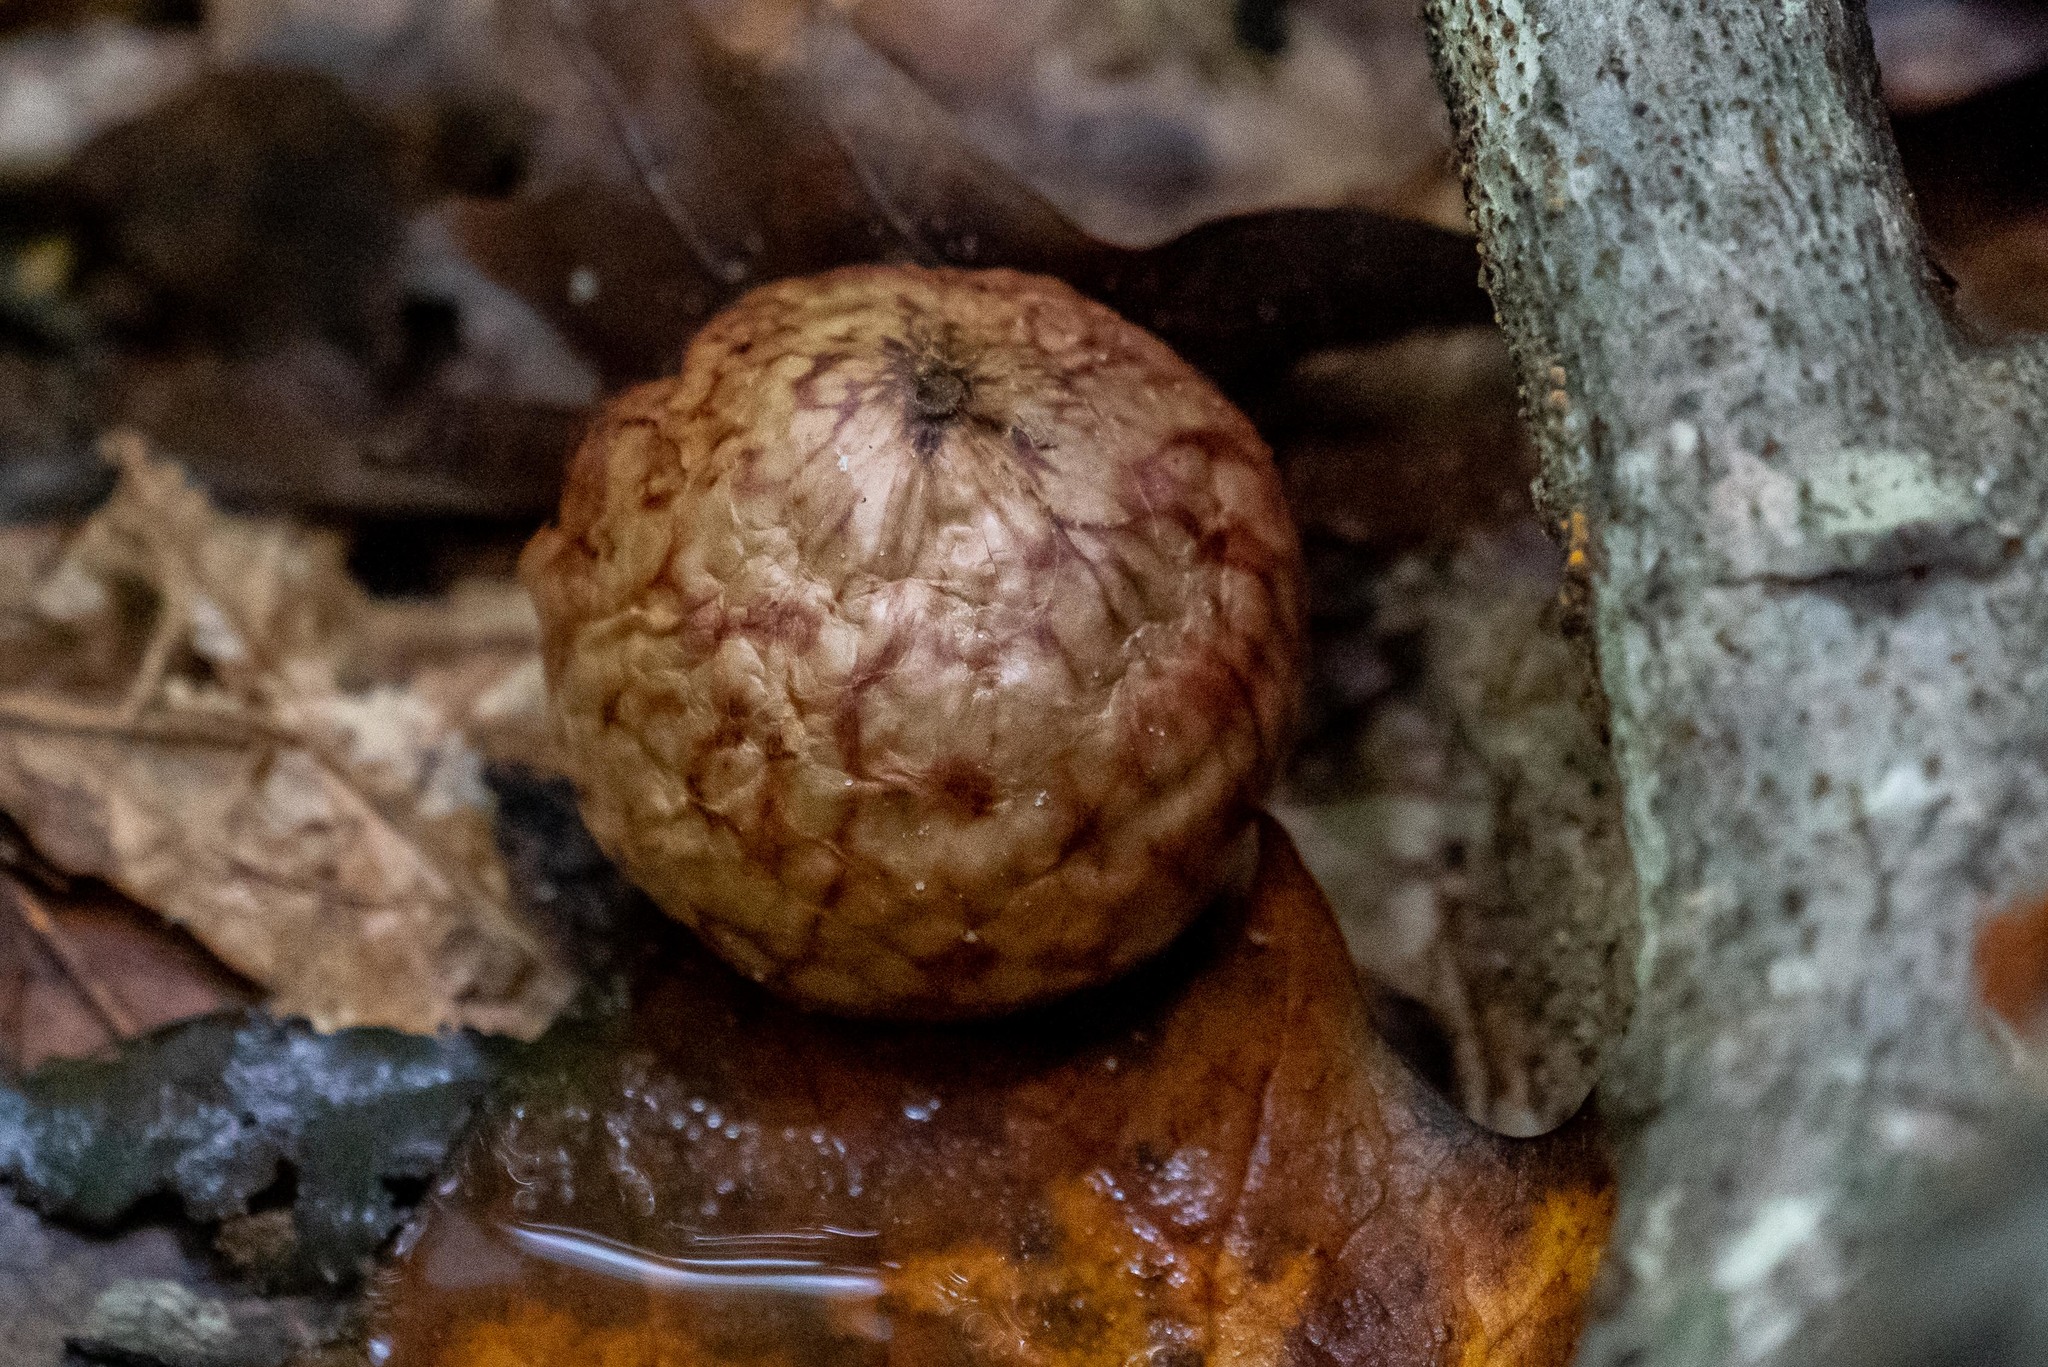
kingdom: Animalia
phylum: Arthropoda
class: Insecta
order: Hymenoptera
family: Cynipidae
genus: Amphibolips
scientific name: Amphibolips
